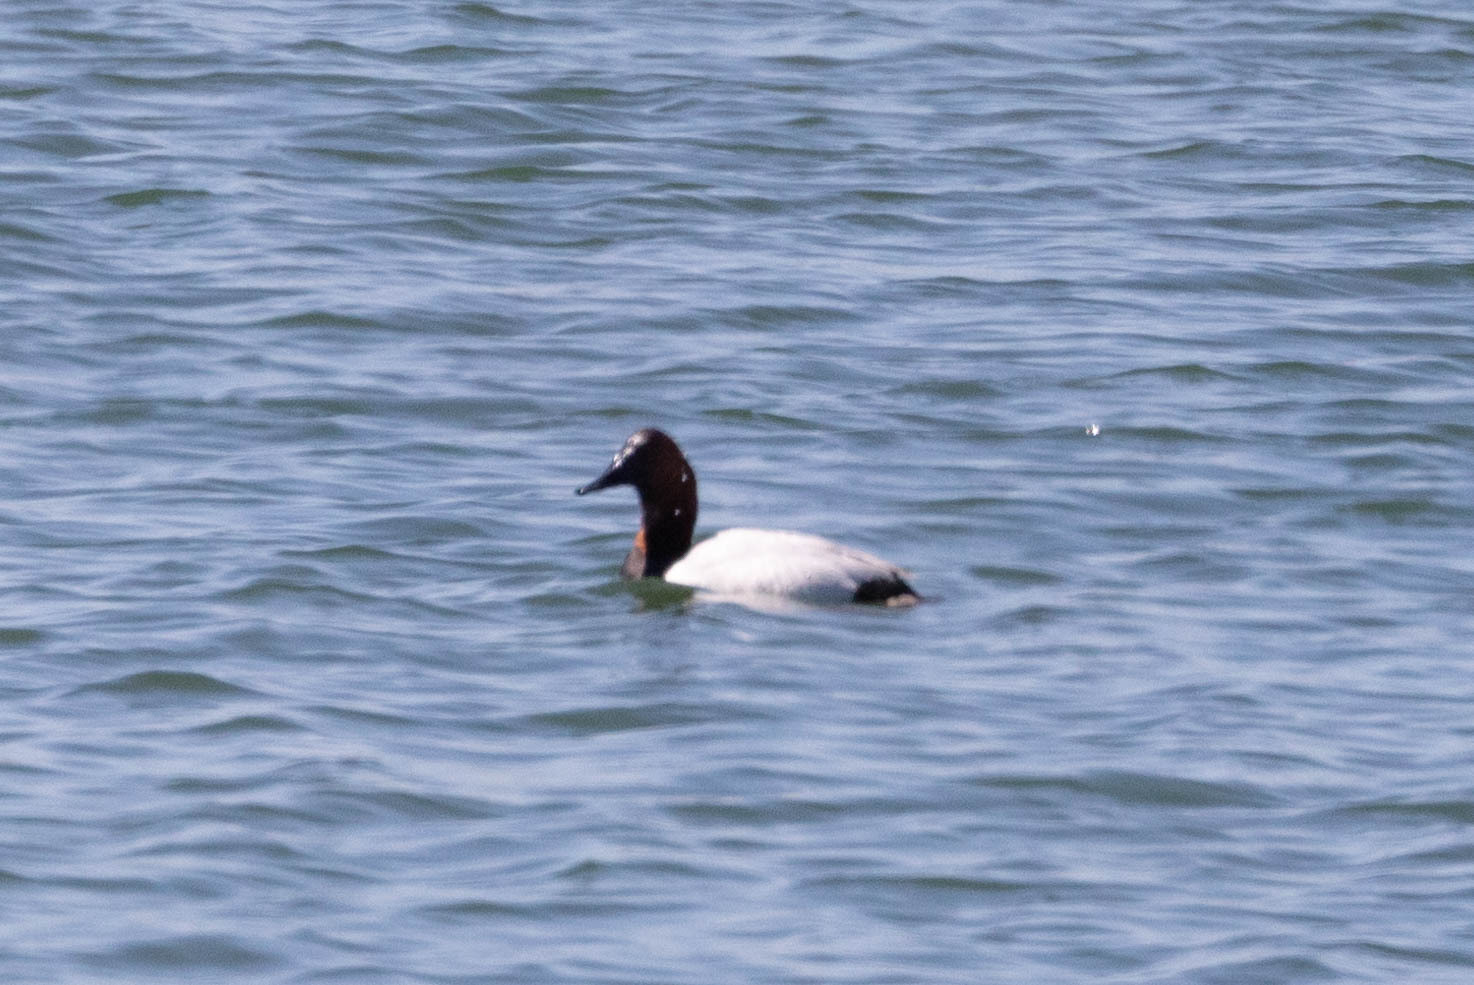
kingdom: Animalia
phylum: Chordata
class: Aves
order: Anseriformes
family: Anatidae
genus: Aythya
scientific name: Aythya valisineria
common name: Canvasback
